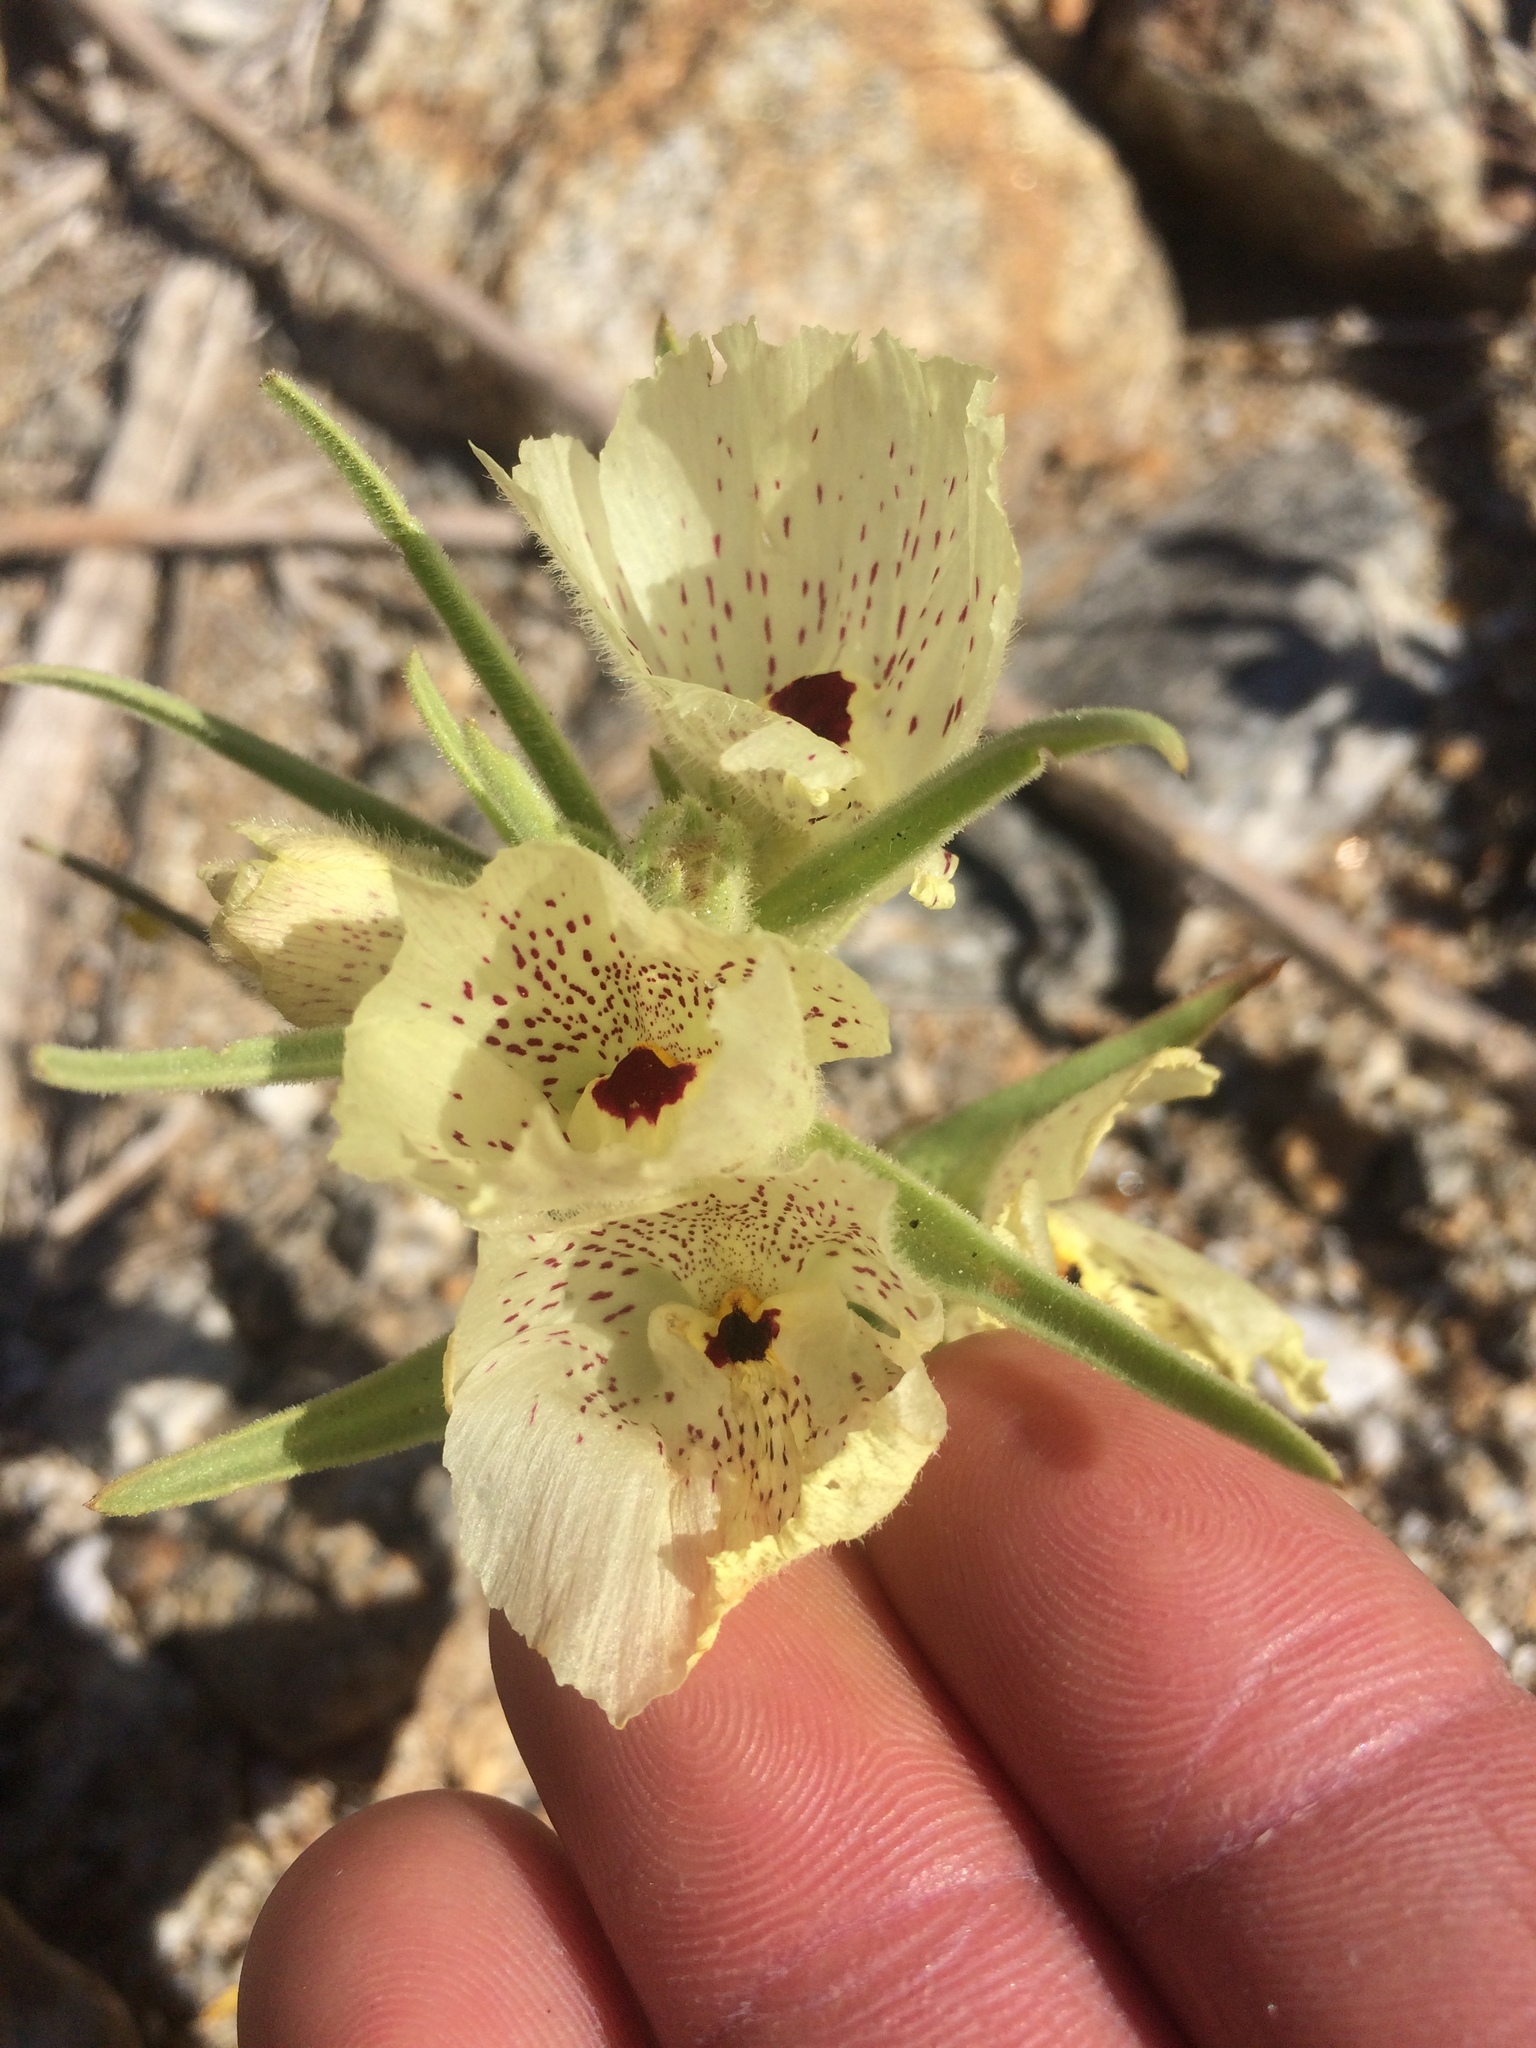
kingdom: Plantae
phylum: Tracheophyta
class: Magnoliopsida
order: Lamiales
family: Plantaginaceae
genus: Mohavea
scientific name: Mohavea confertiflora
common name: Ghost flower
